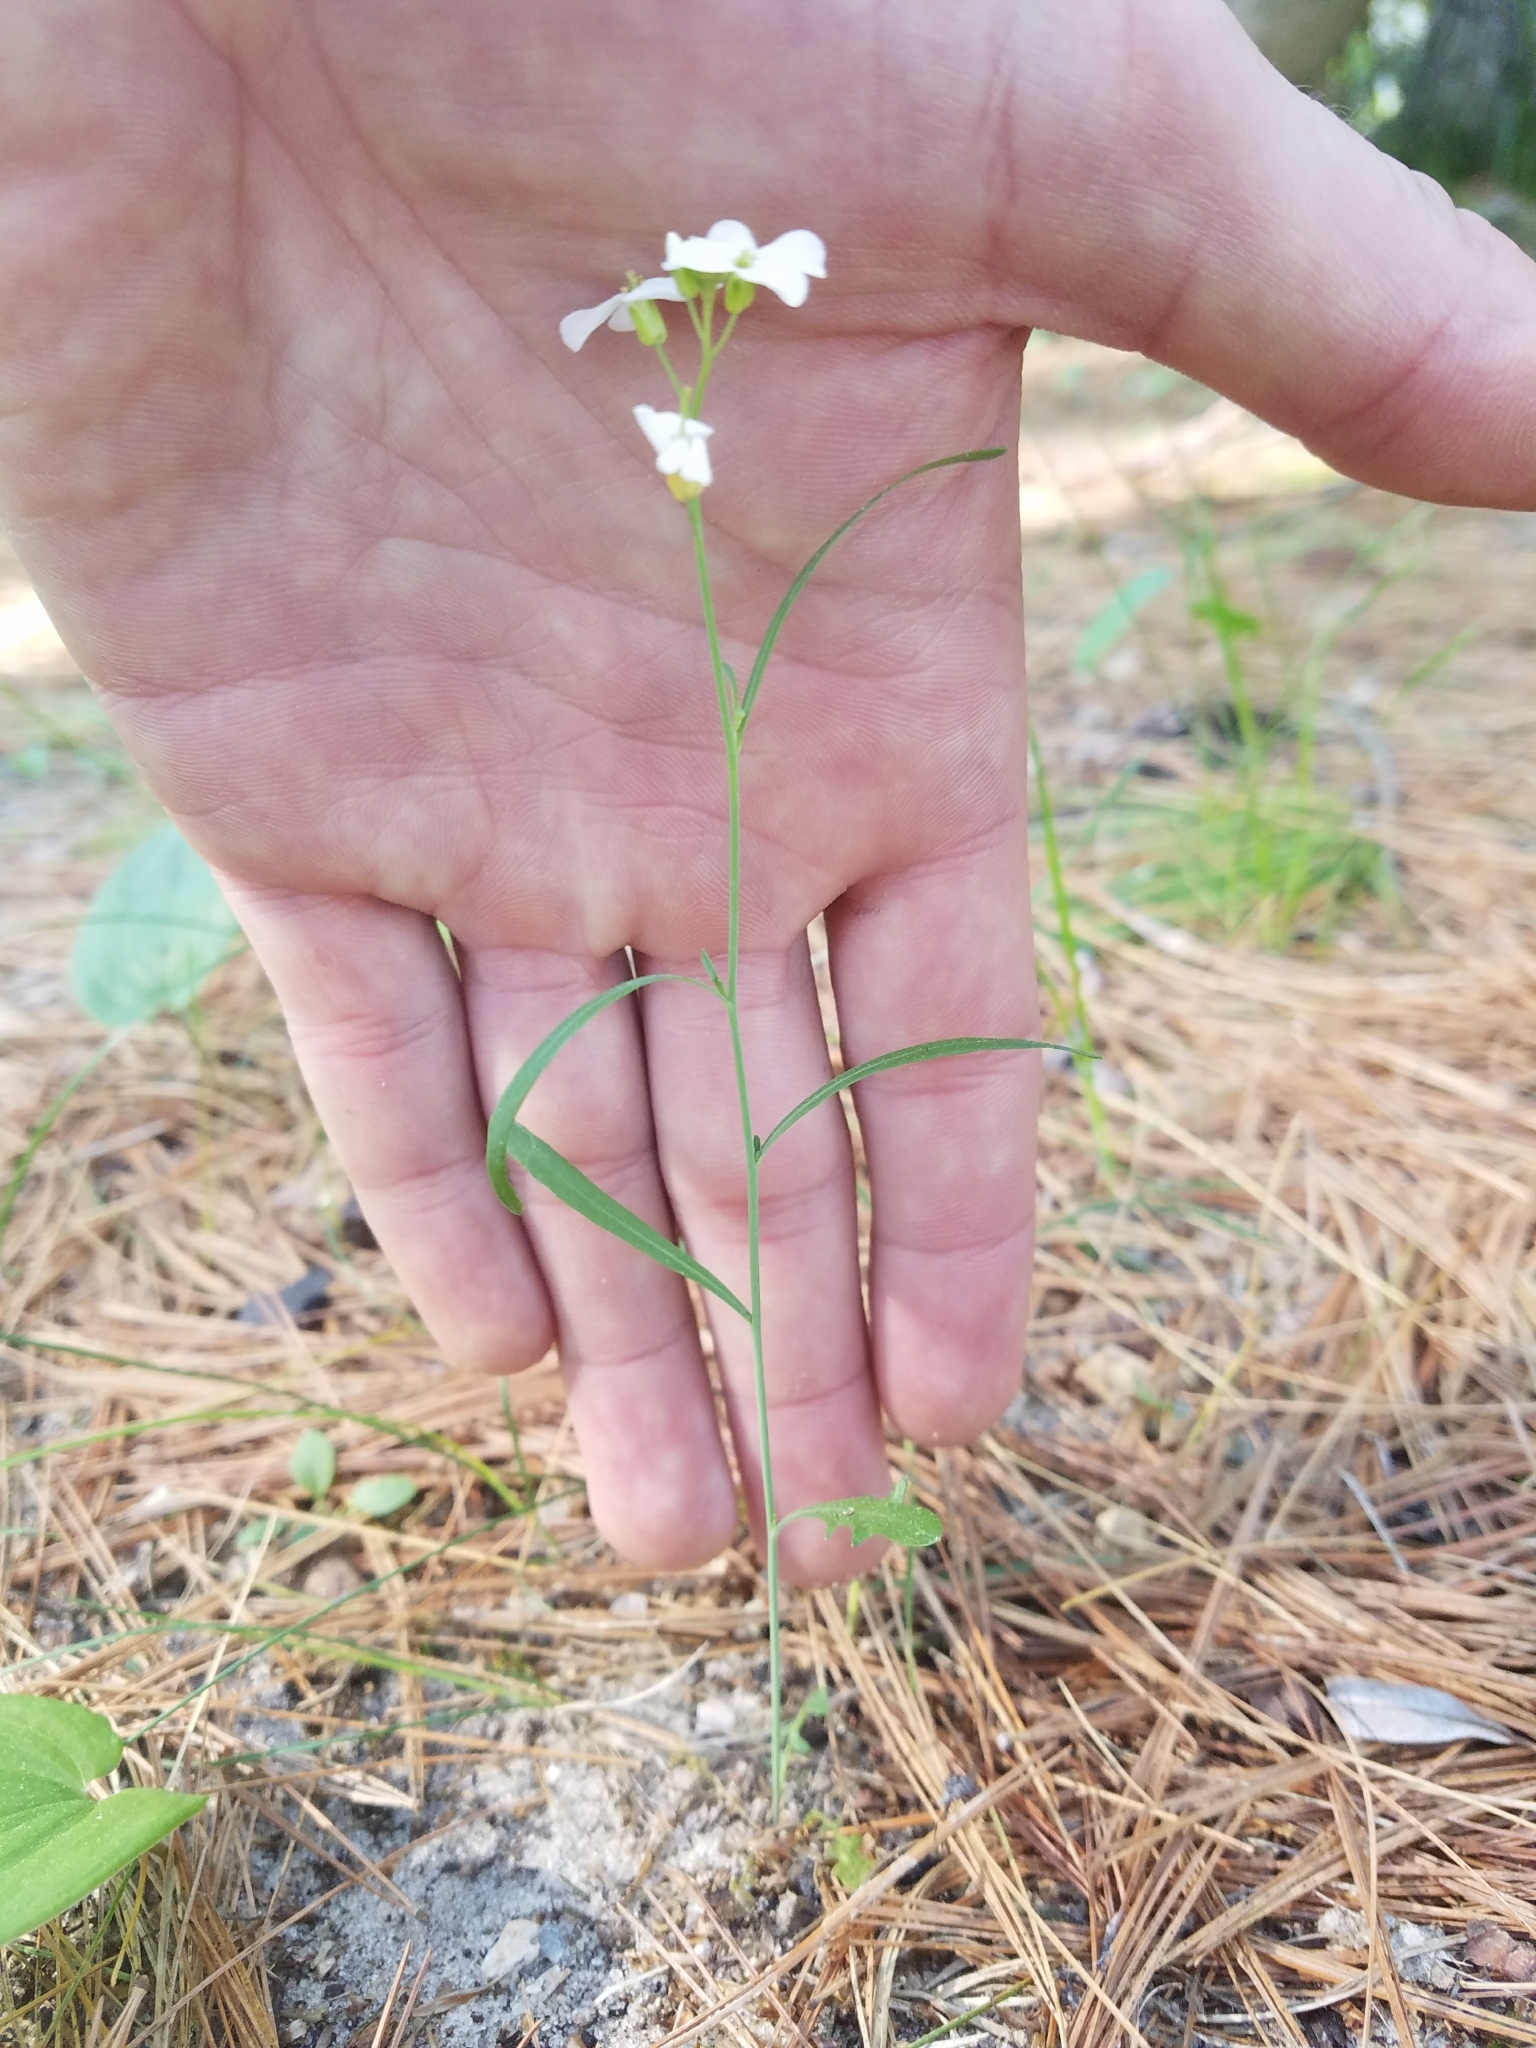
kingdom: Plantae
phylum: Tracheophyta
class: Magnoliopsida
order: Brassicales
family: Brassicaceae
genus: Arabidopsis
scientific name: Arabidopsis lyrata
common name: Lyrate rockcress
